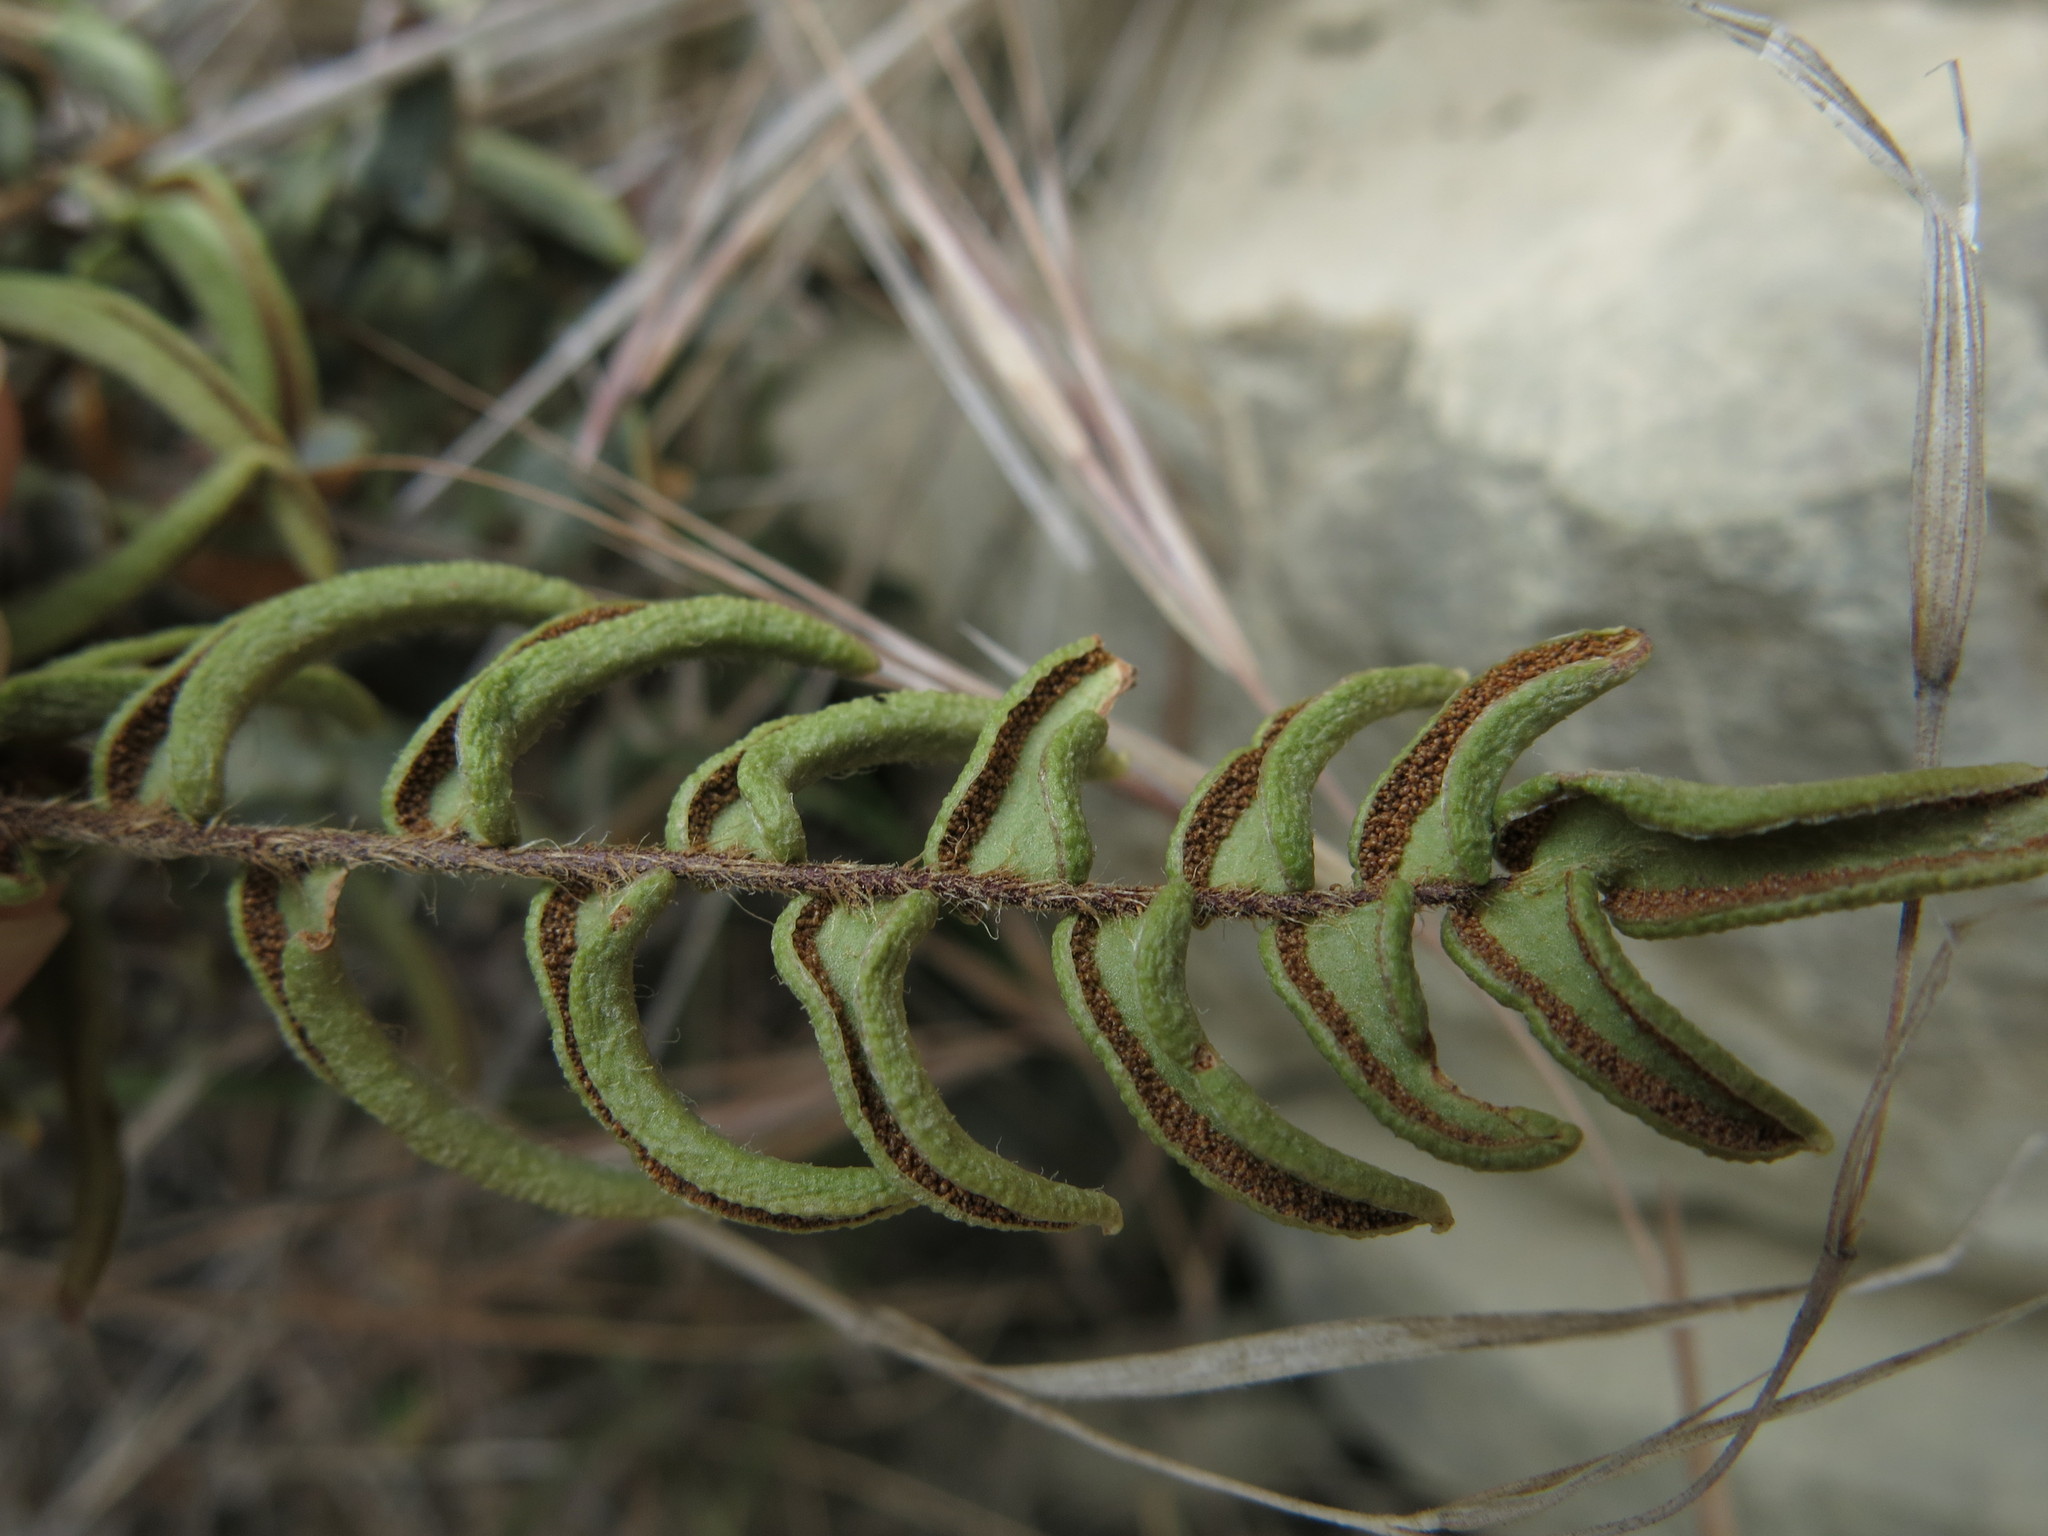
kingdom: Plantae
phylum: Tracheophyta
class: Polypodiopsida
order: Polypodiales
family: Pteridaceae
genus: Pellaea
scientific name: Pellaea calidirupium
